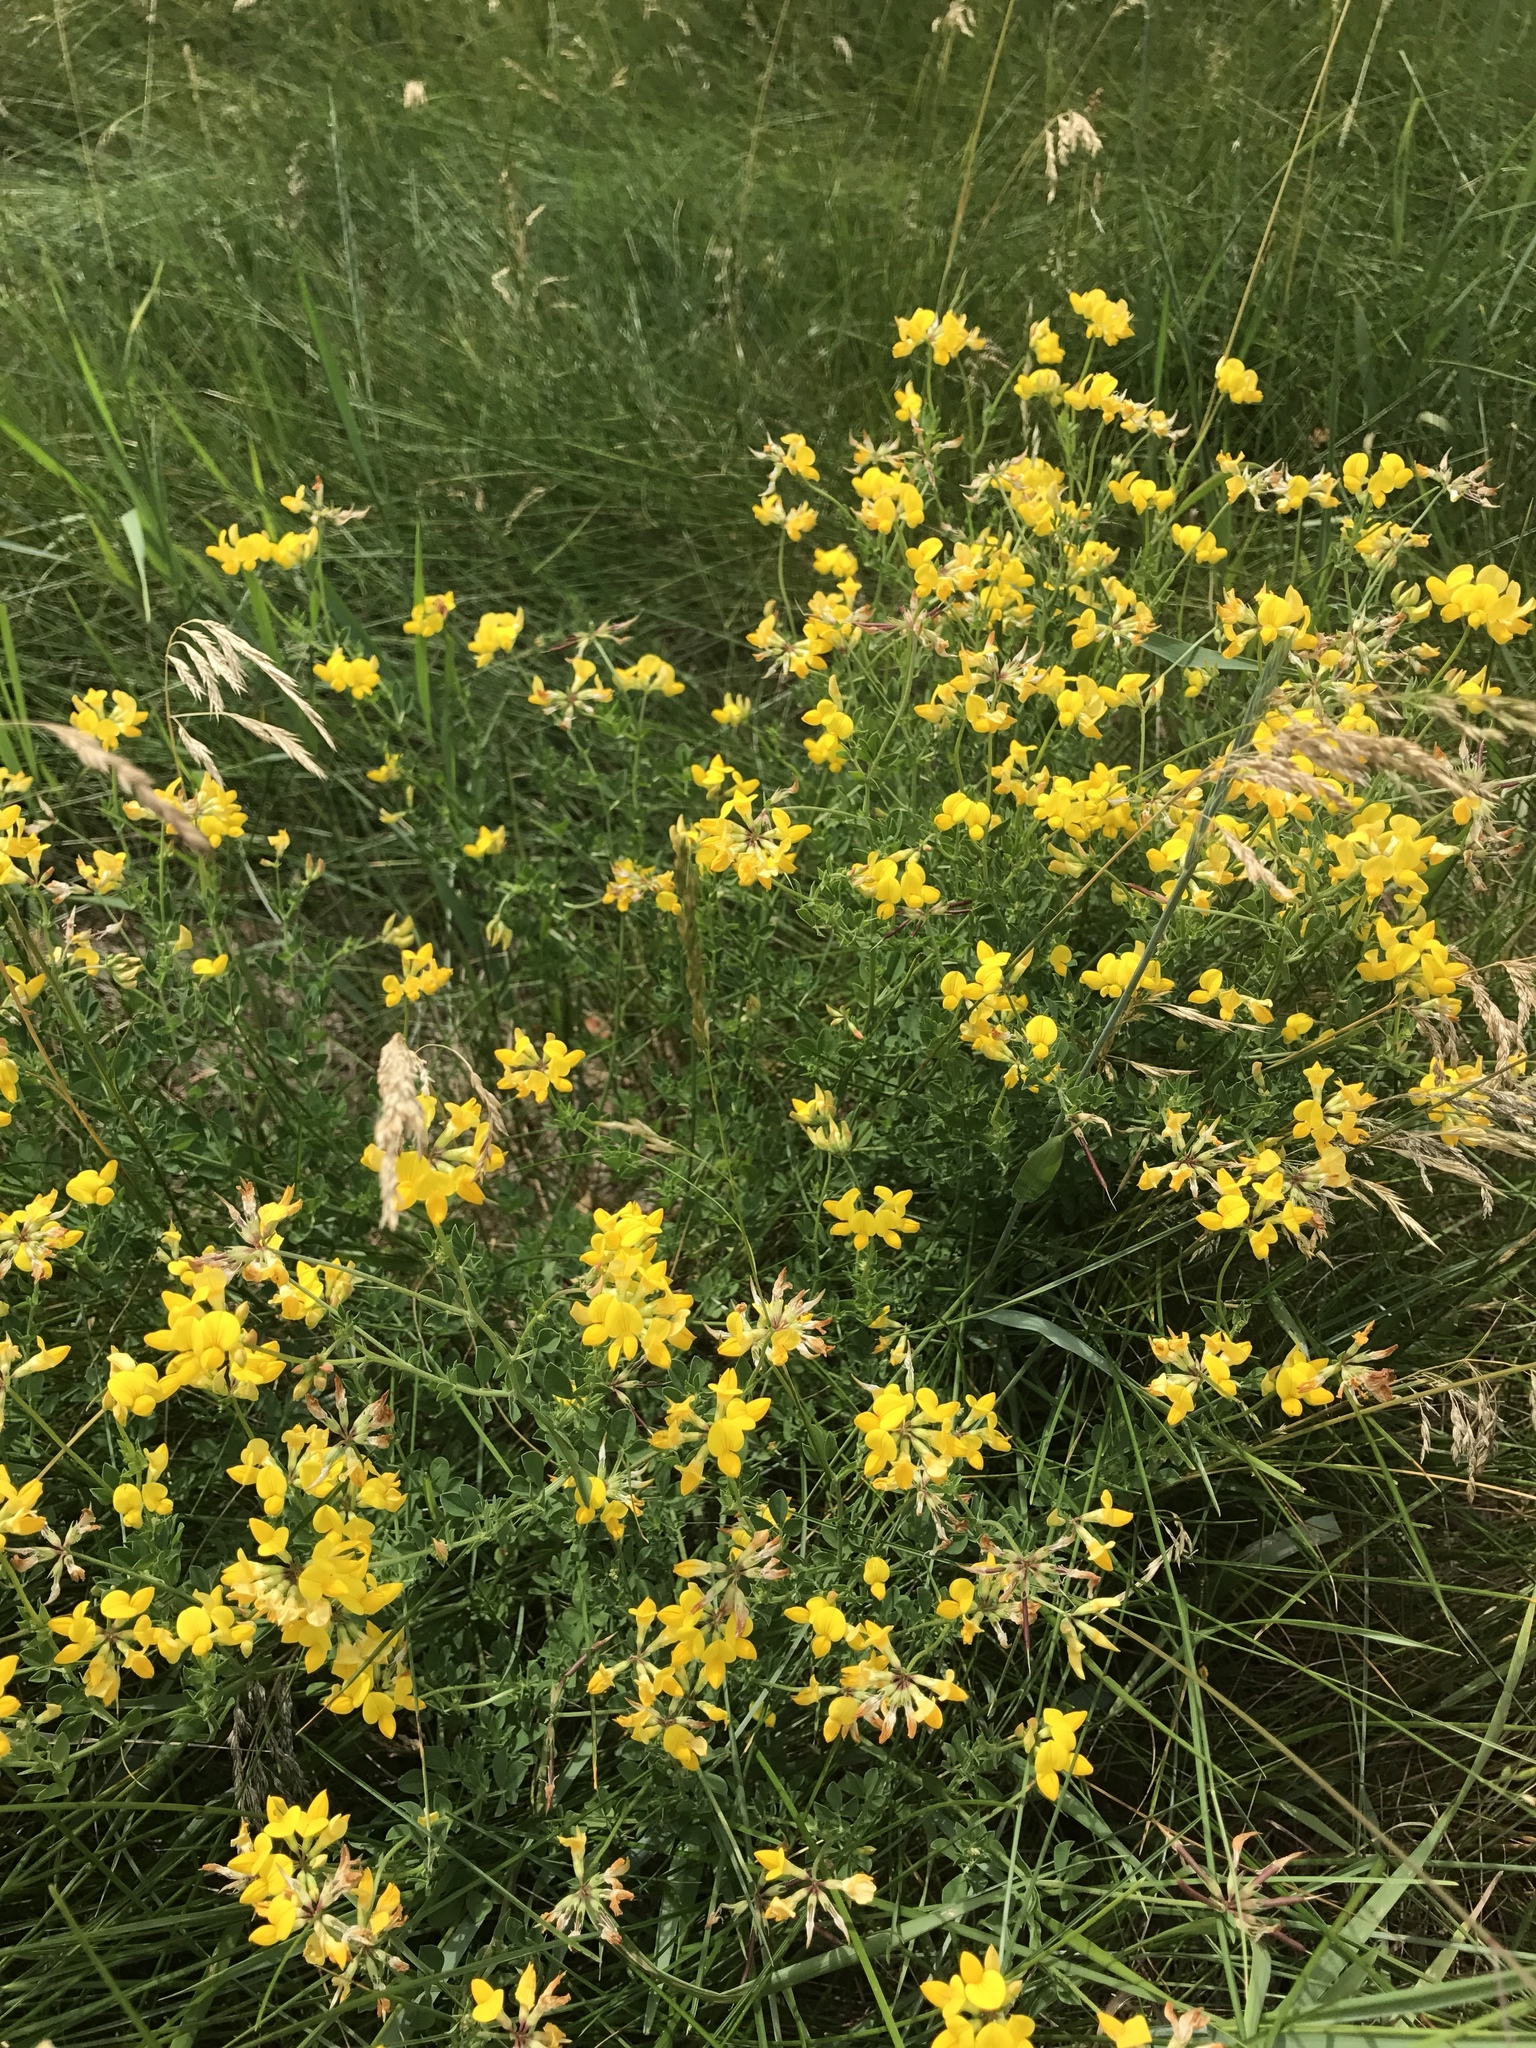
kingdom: Plantae
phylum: Tracheophyta
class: Magnoliopsida
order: Fabales
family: Fabaceae
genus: Lotus
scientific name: Lotus corniculatus
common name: Common bird's-foot-trefoil
